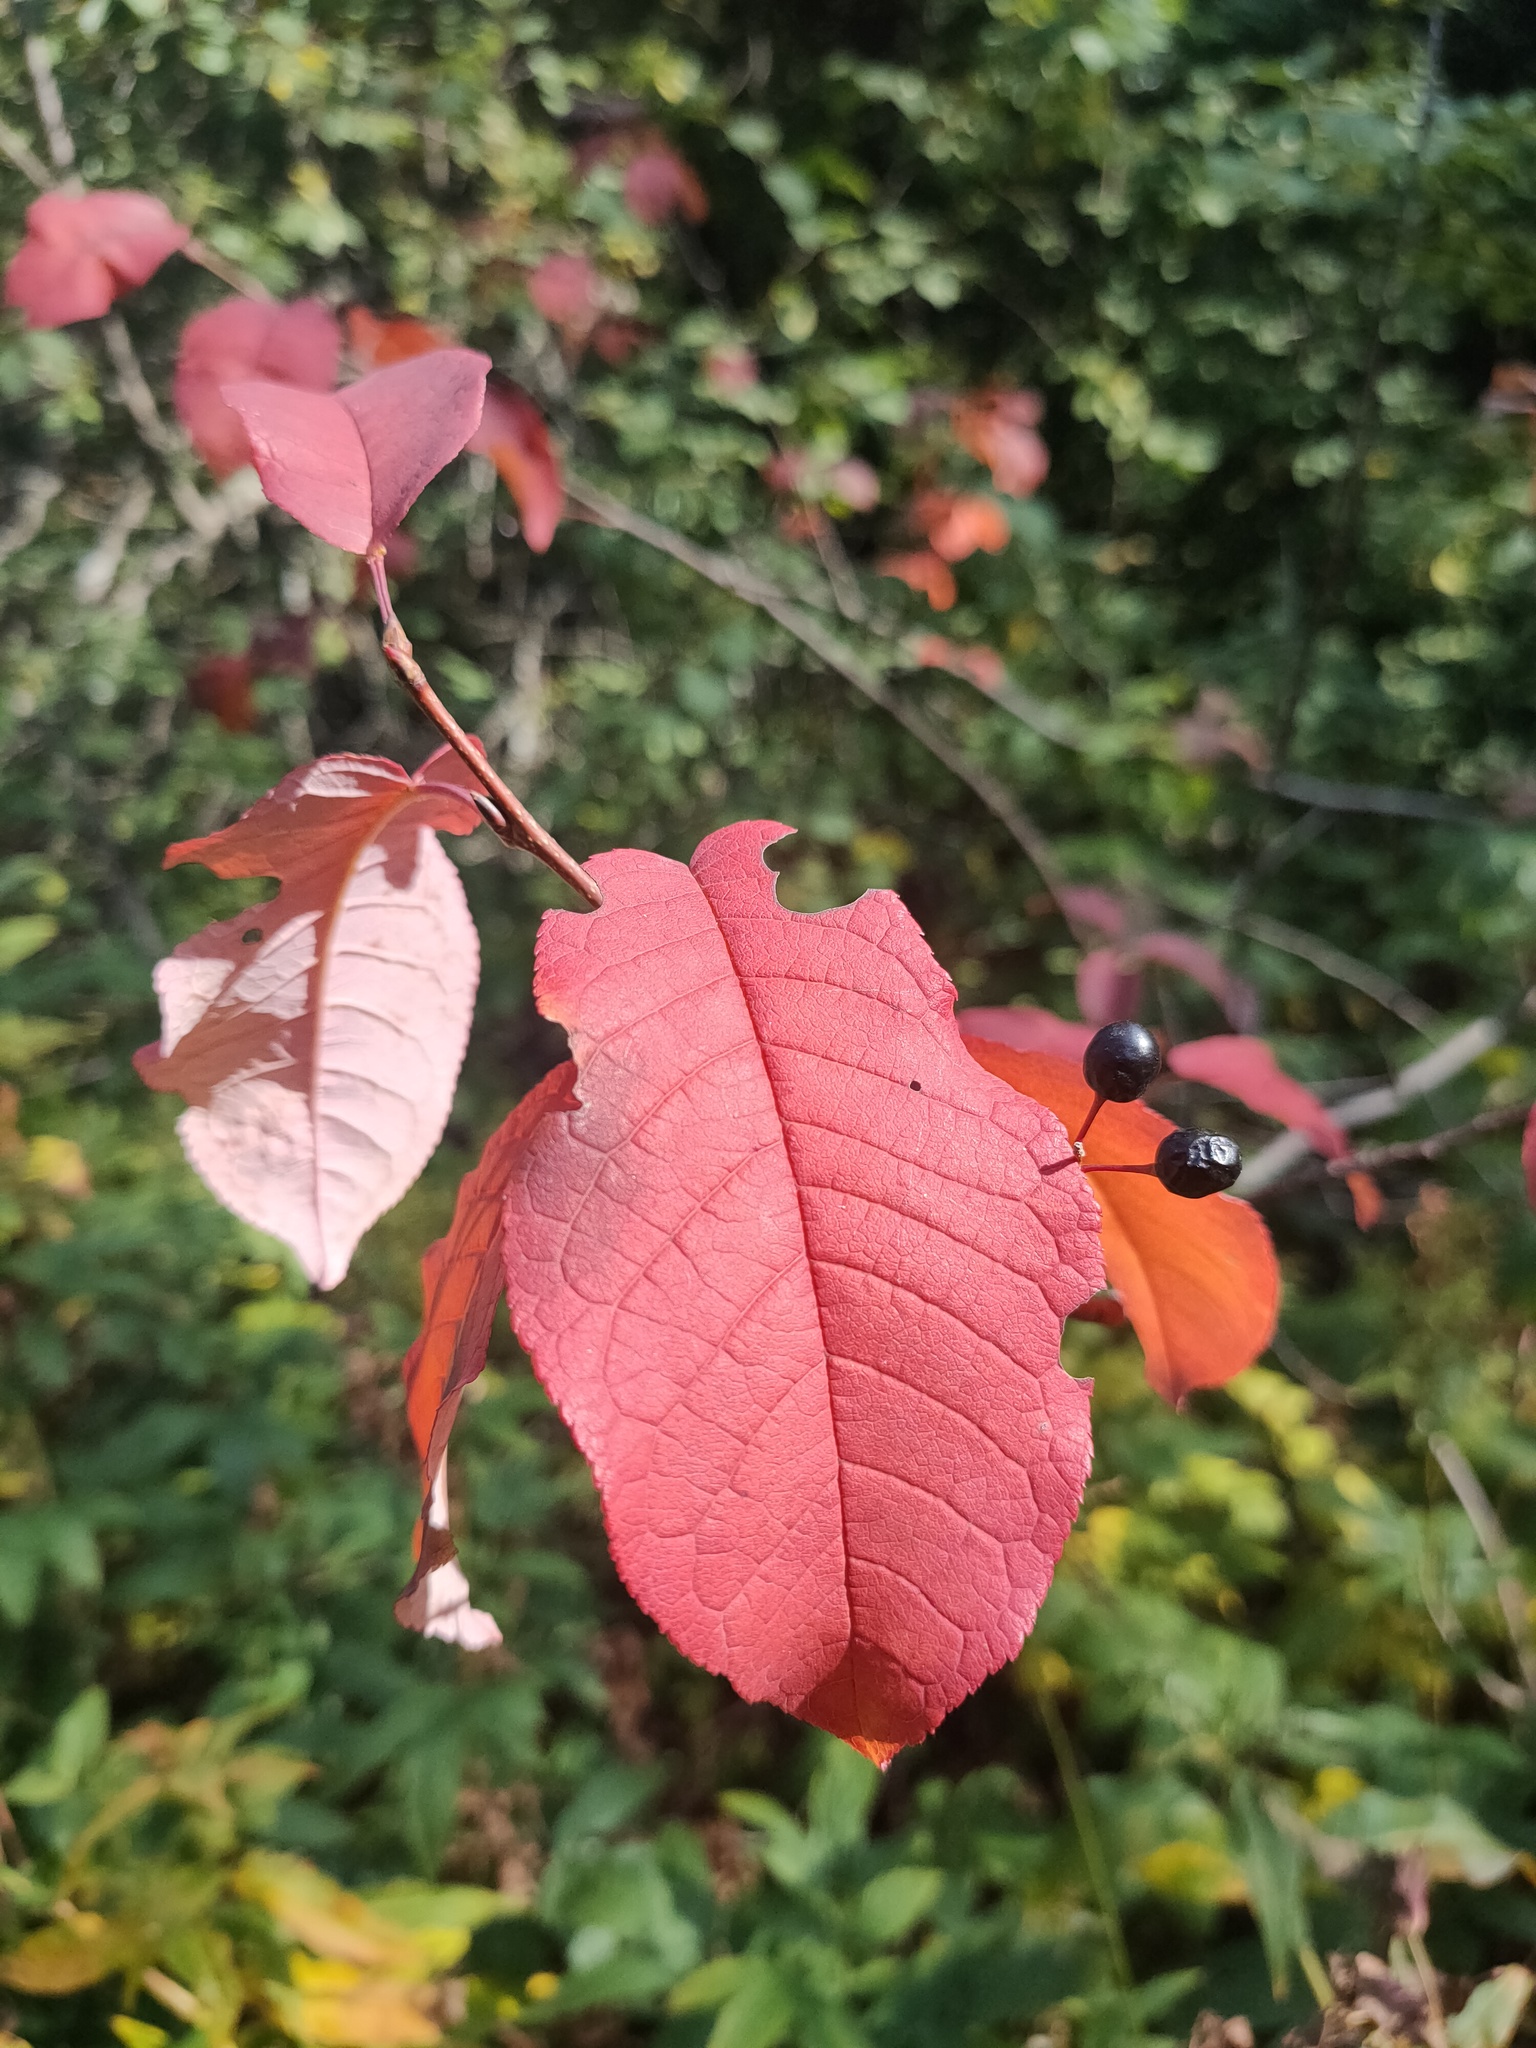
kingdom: Plantae
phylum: Tracheophyta
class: Magnoliopsida
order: Rosales
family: Rosaceae
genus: Prunus
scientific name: Prunus padus
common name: Bird cherry
